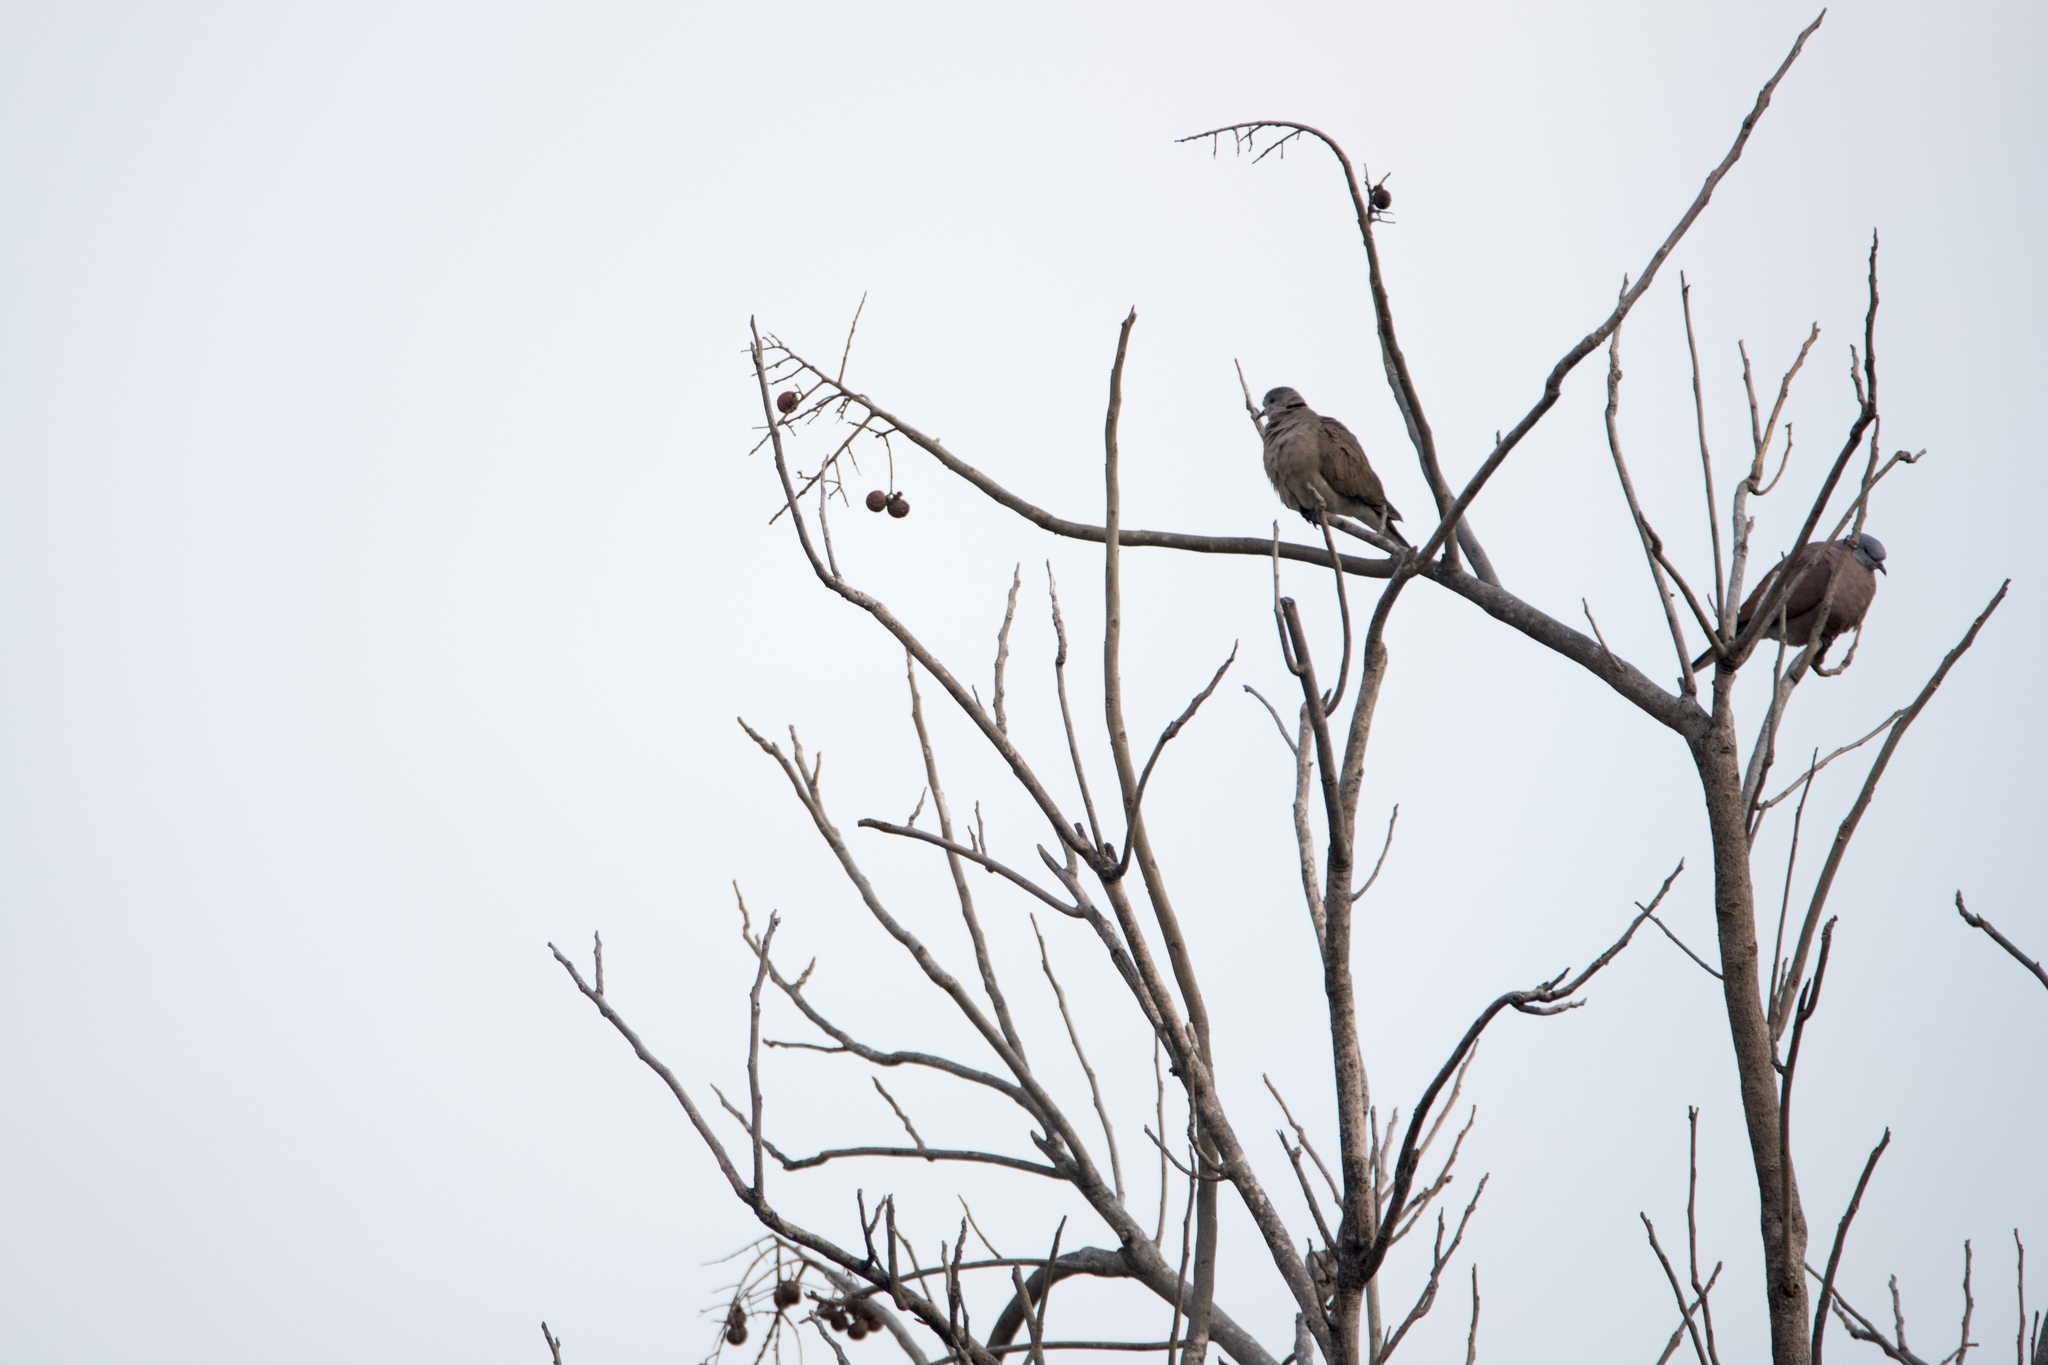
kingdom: Animalia
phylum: Chordata
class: Aves
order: Columbiformes
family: Columbidae
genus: Streptopelia
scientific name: Streptopelia tranquebarica
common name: Red turtle dove
